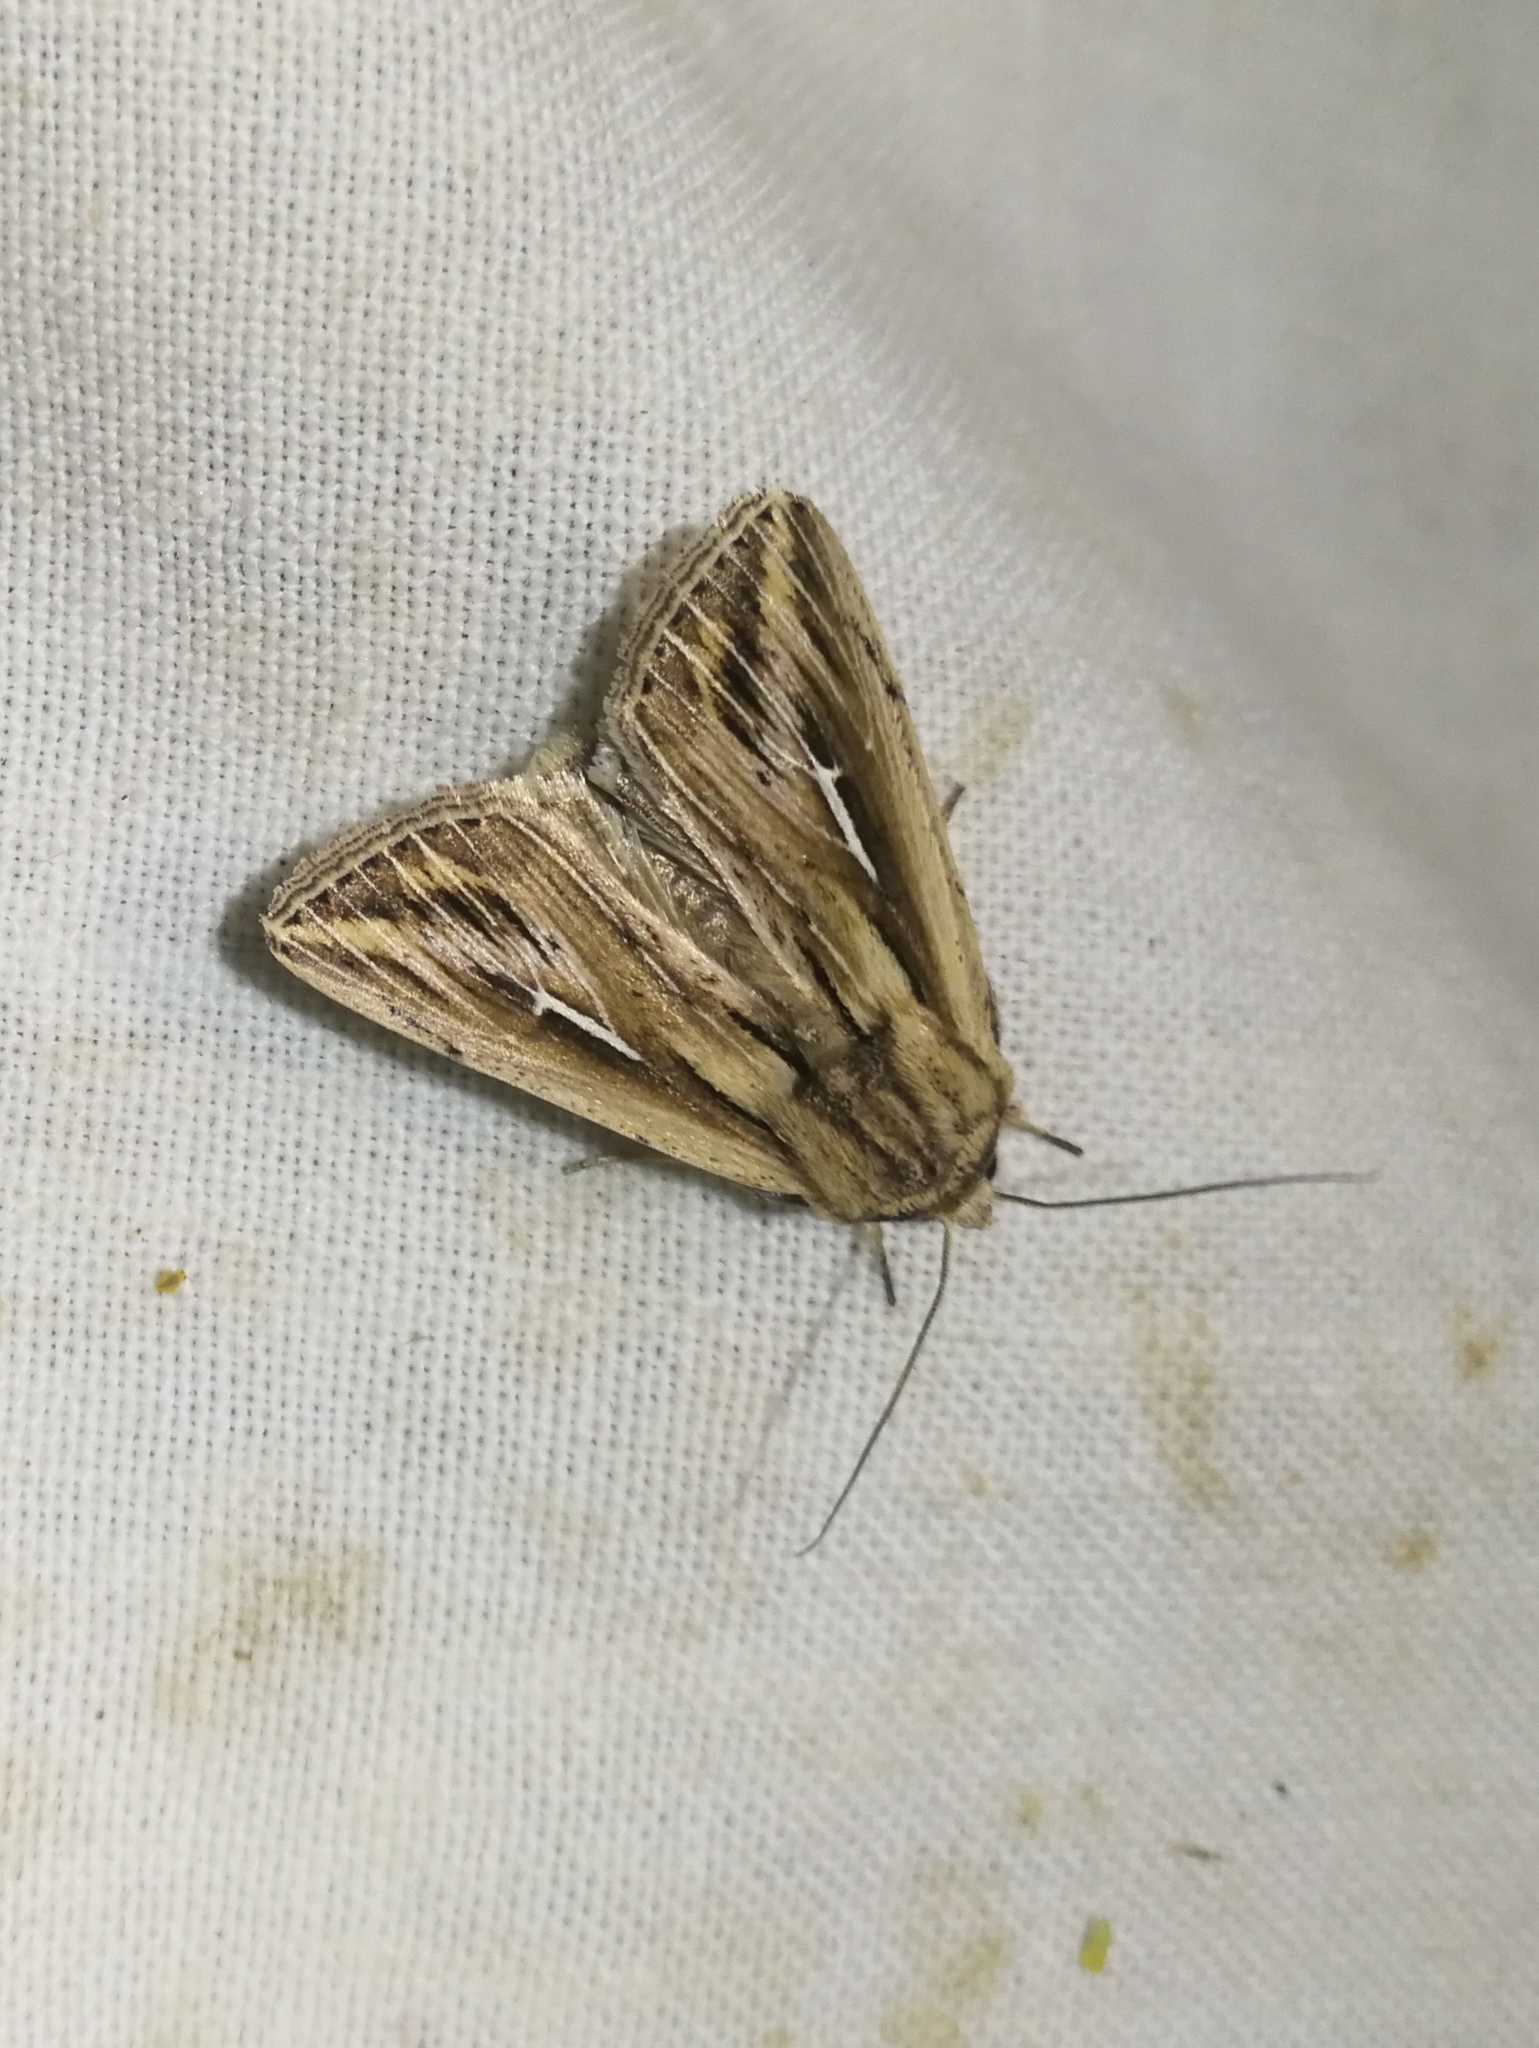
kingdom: Animalia
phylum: Arthropoda
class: Insecta
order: Lepidoptera
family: Noctuidae
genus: Mythimna
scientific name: Mythimna l-album
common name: L-album wainscot
